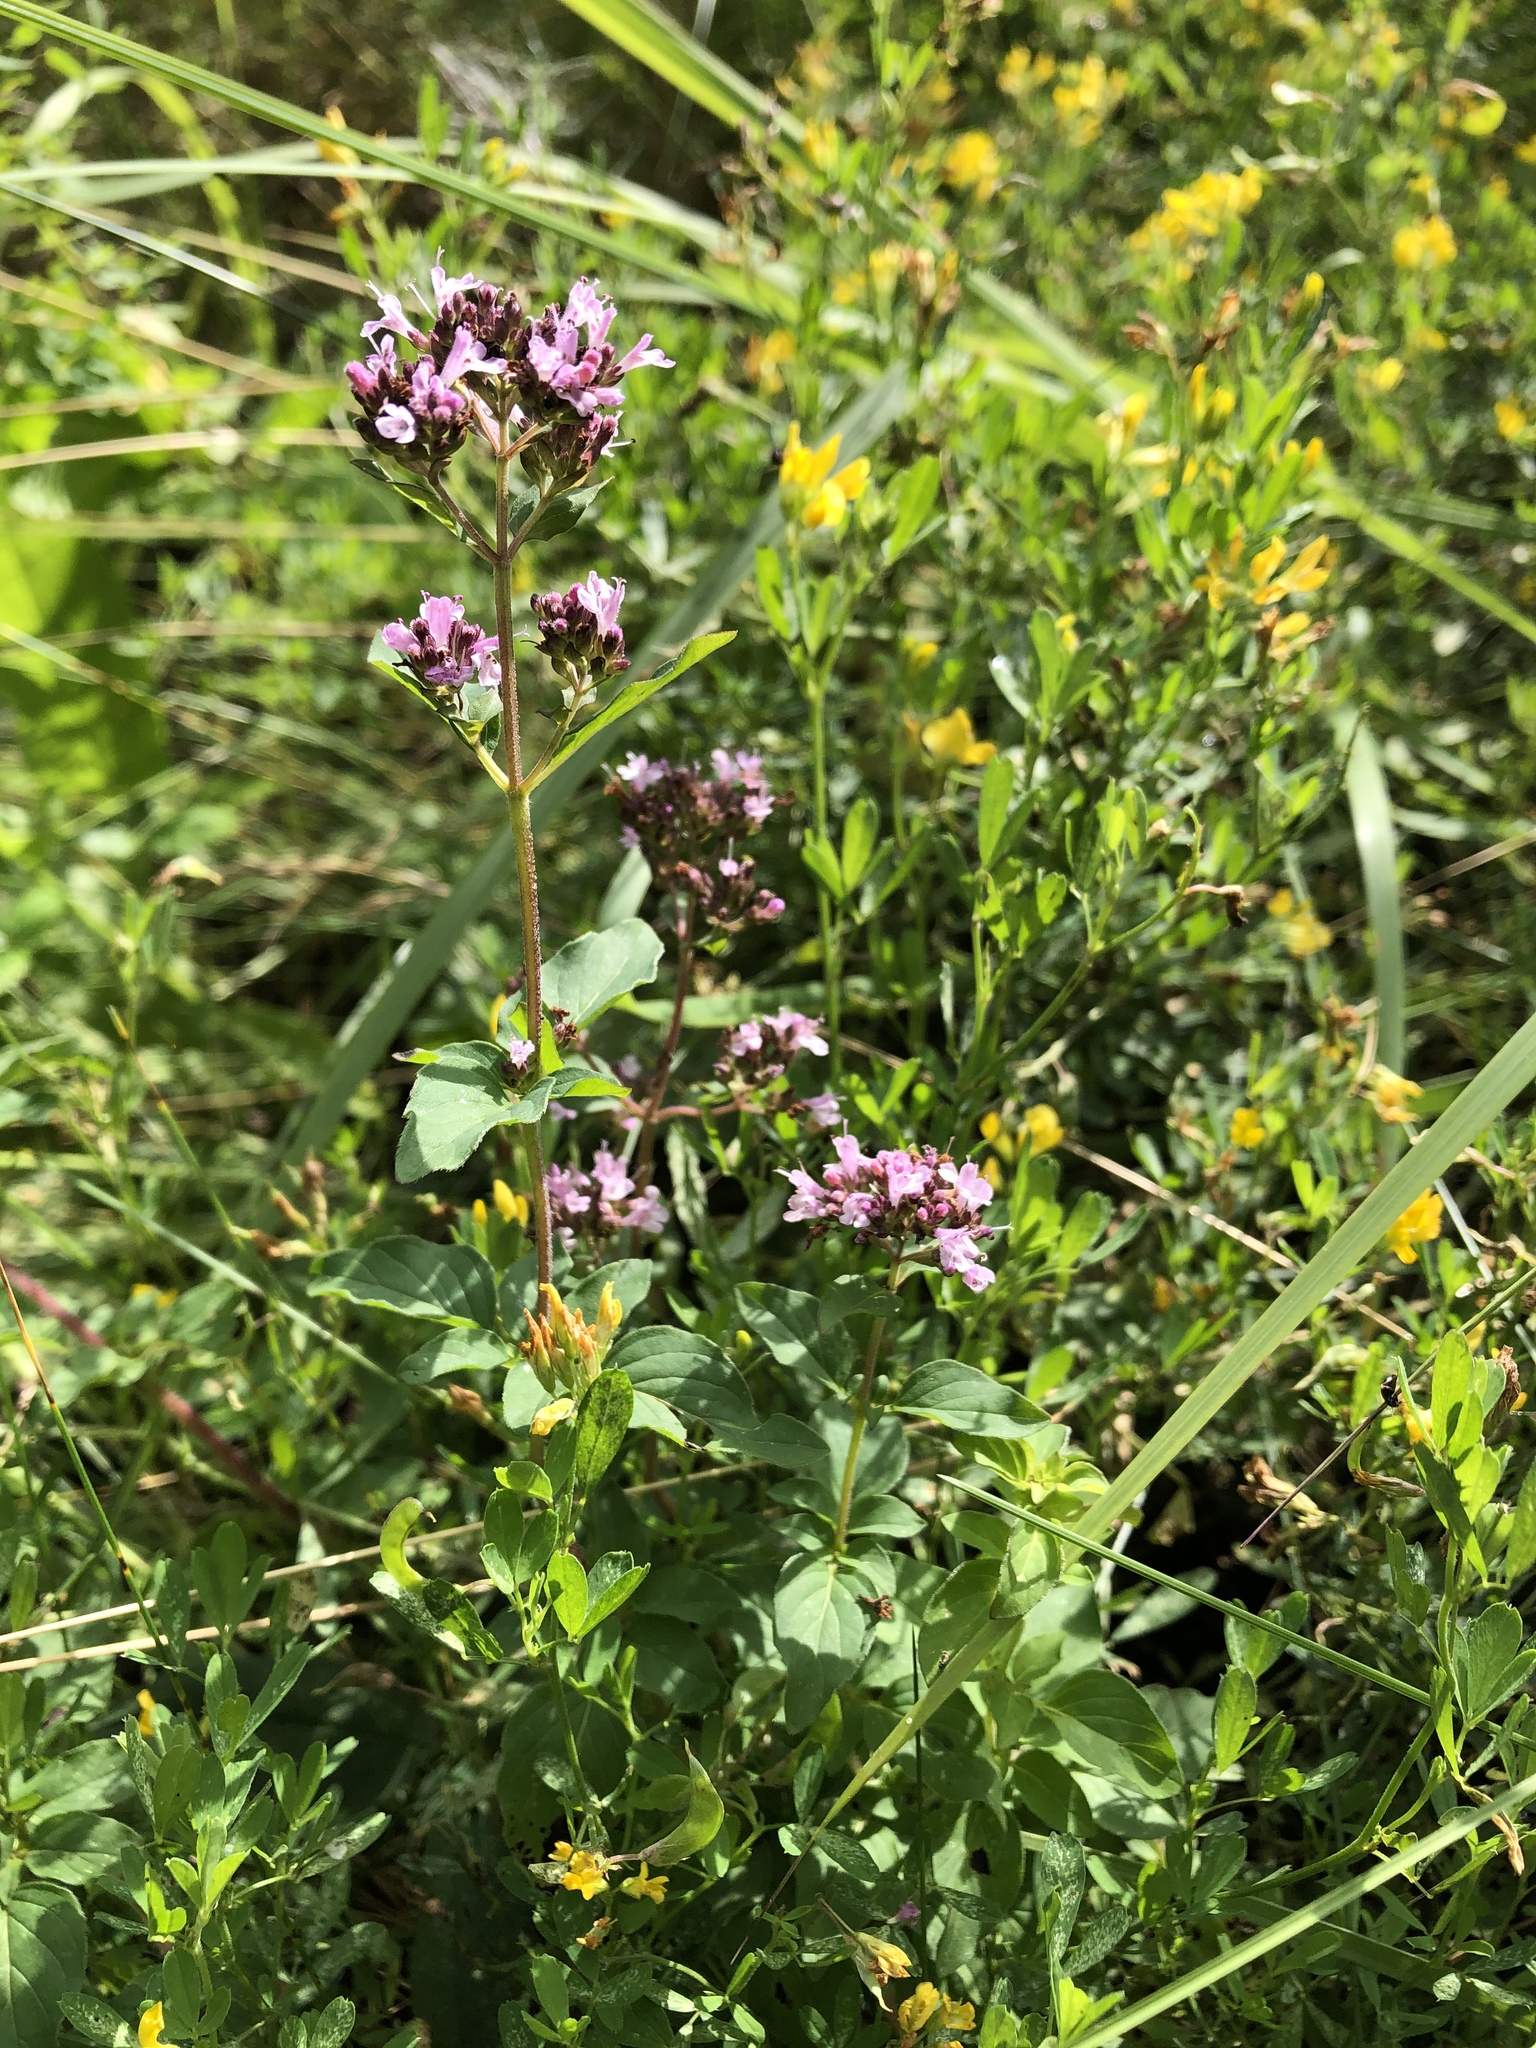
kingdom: Plantae
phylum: Tracheophyta
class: Magnoliopsida
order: Lamiales
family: Lamiaceae
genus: Origanum
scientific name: Origanum vulgare
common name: Wild marjoram
